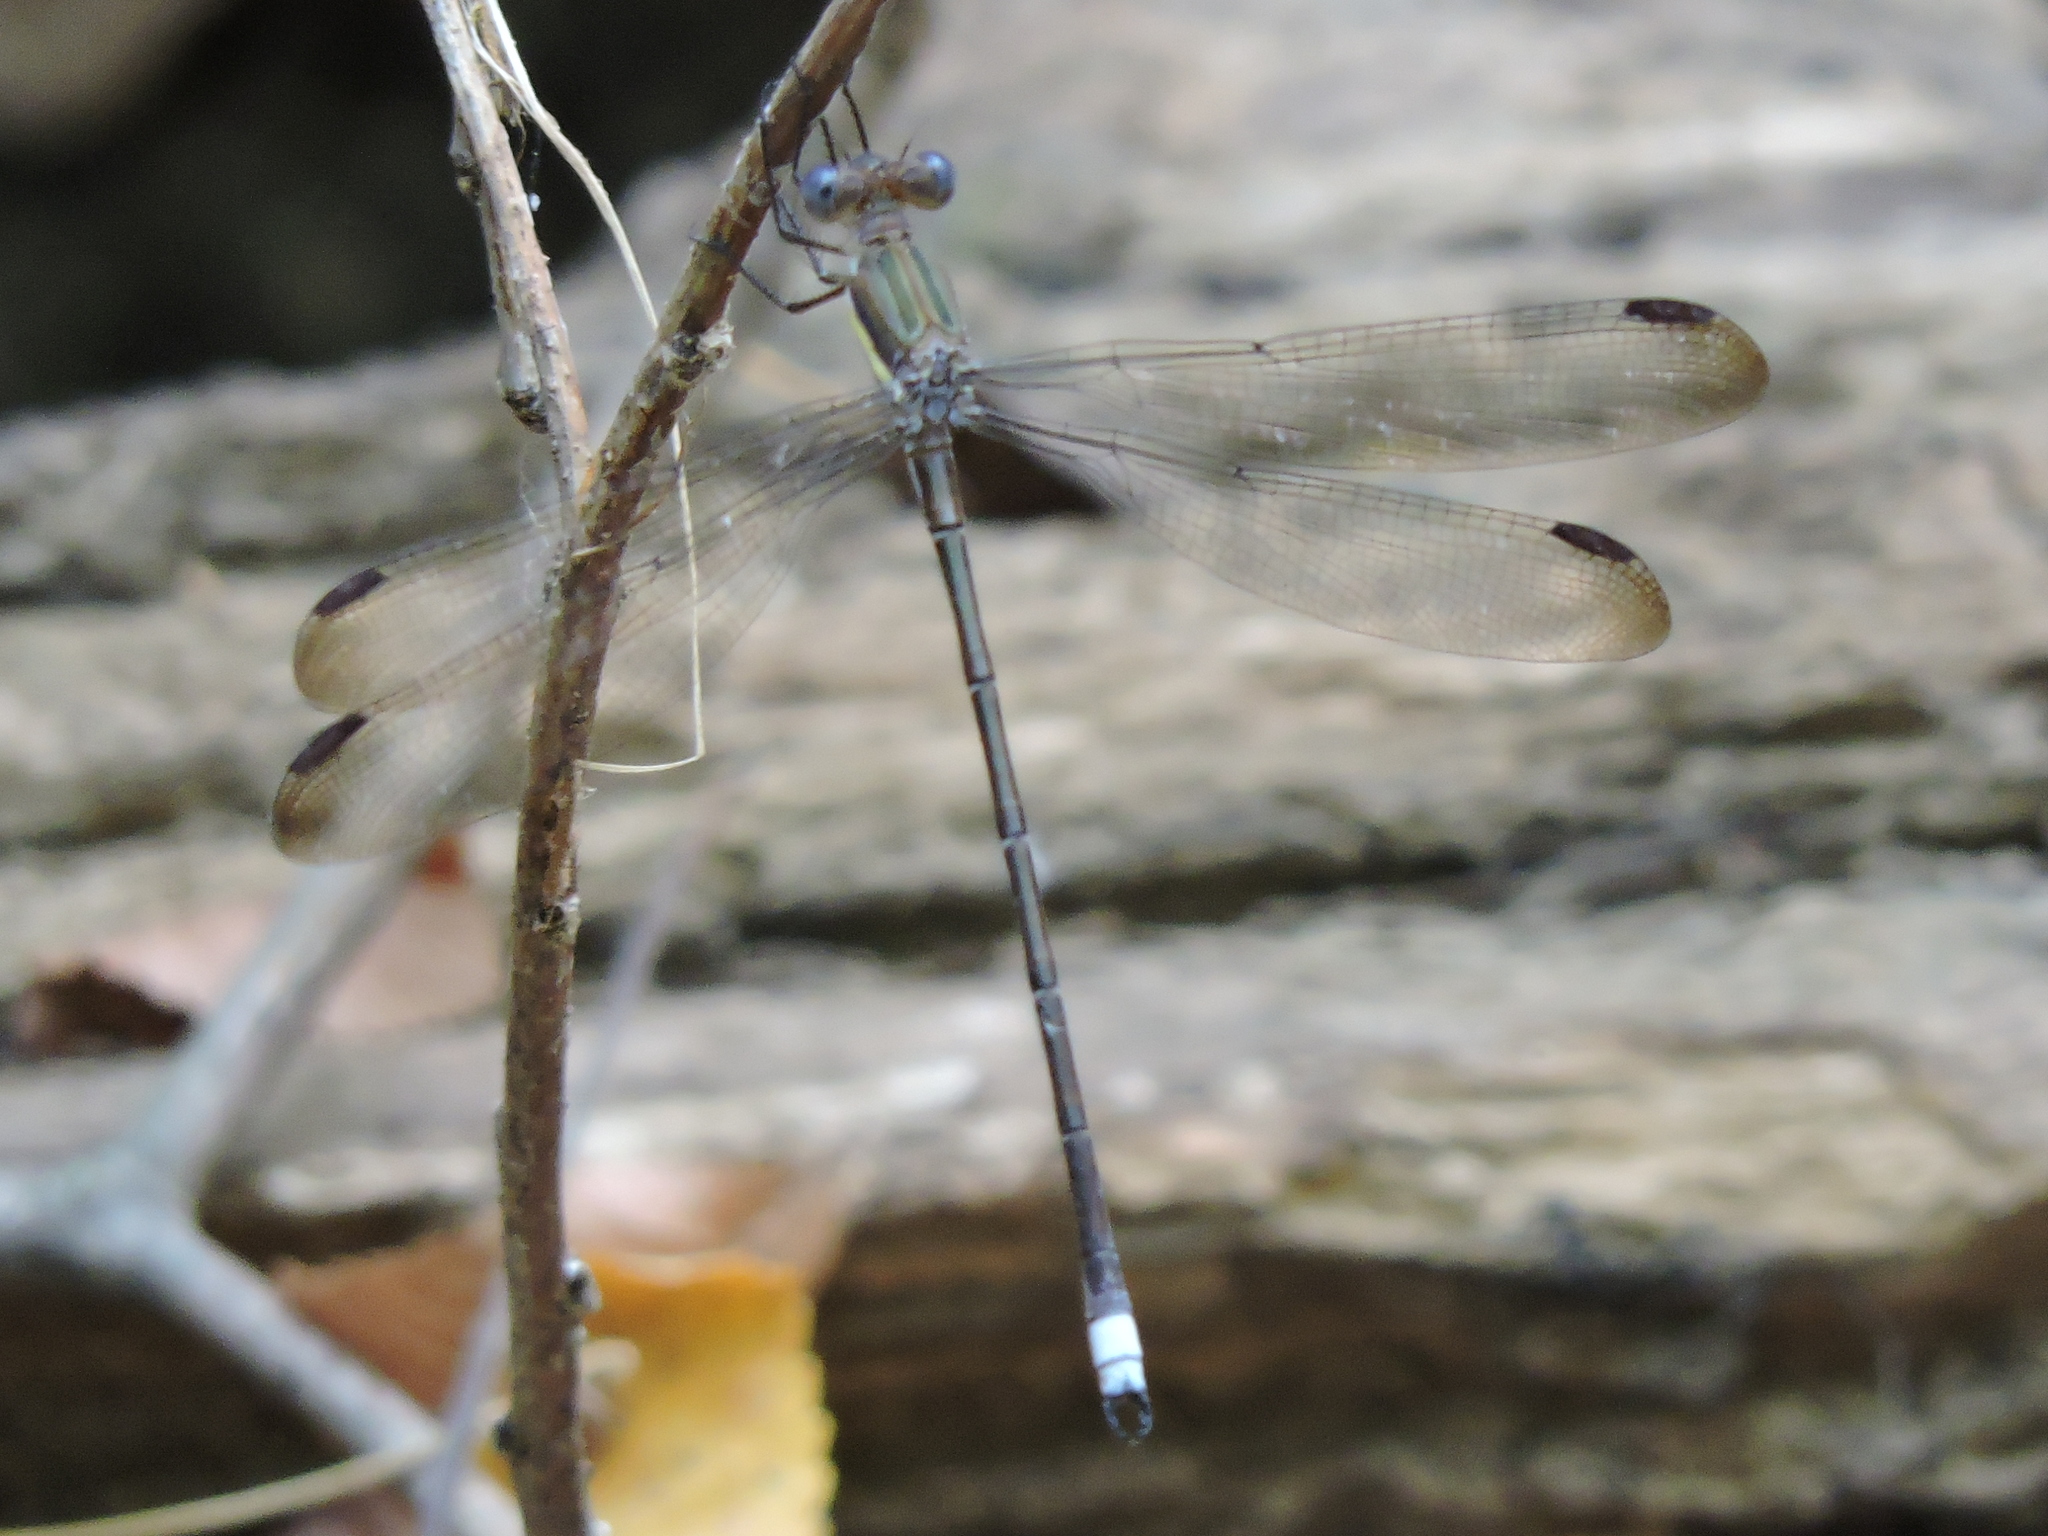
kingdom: Animalia
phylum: Arthropoda
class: Insecta
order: Odonata
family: Lestidae
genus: Archilestes
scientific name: Archilestes grandis
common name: Great spreadwing
